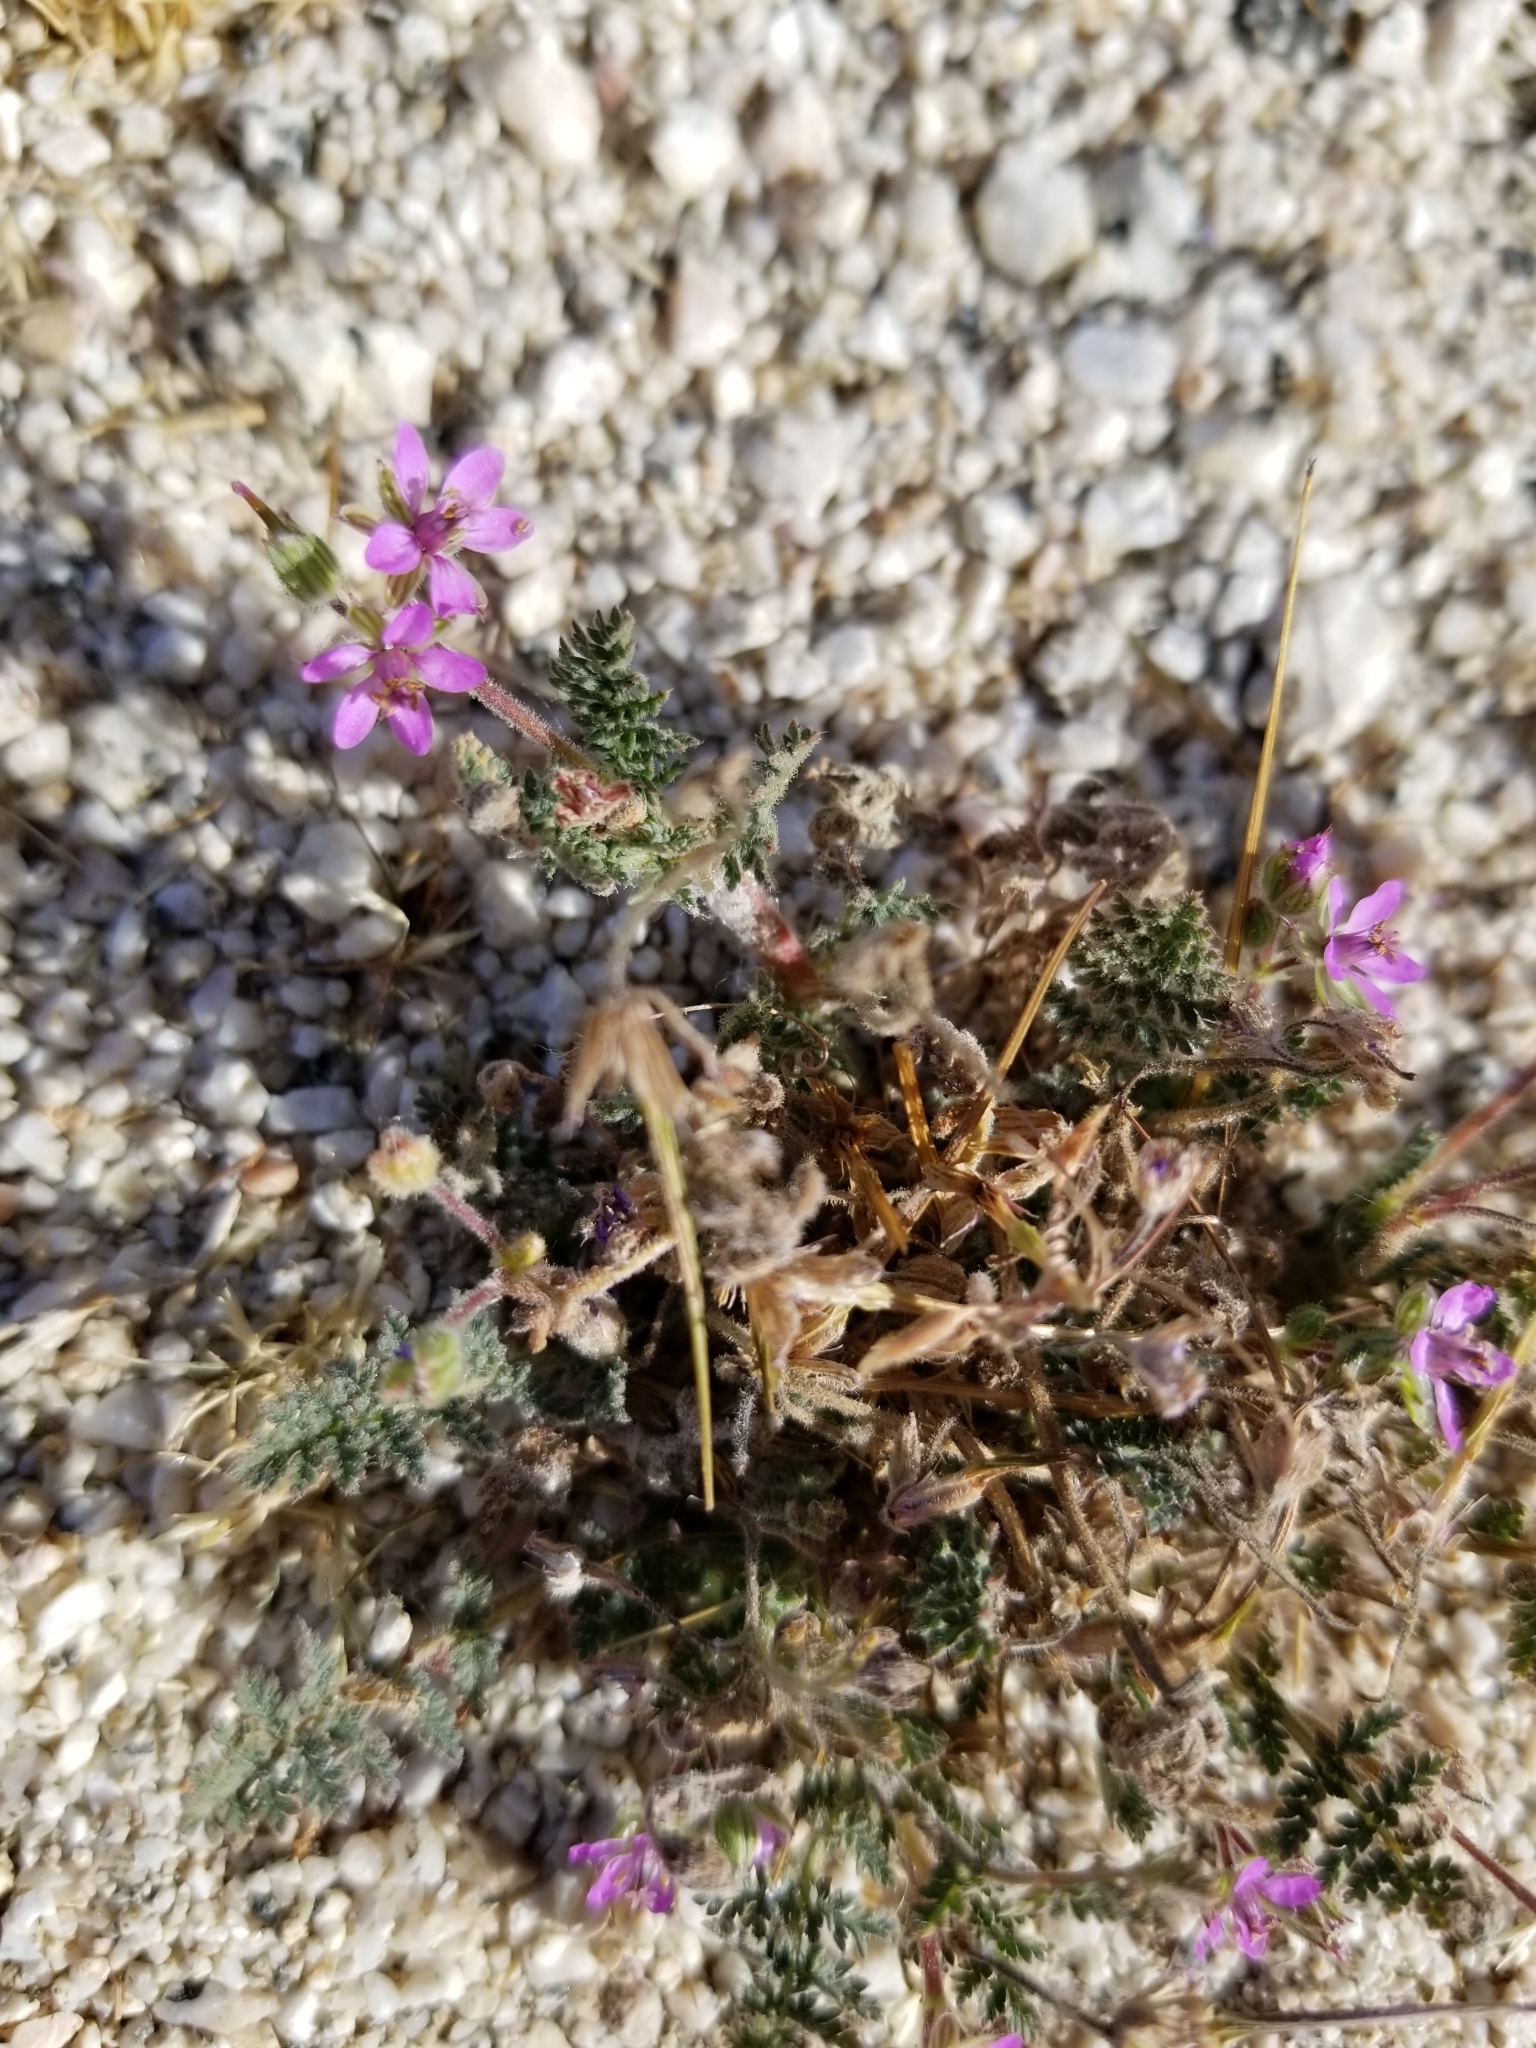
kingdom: Plantae
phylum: Tracheophyta
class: Magnoliopsida
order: Geraniales
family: Geraniaceae
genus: Erodium
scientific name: Erodium cicutarium
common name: Common stork's-bill
